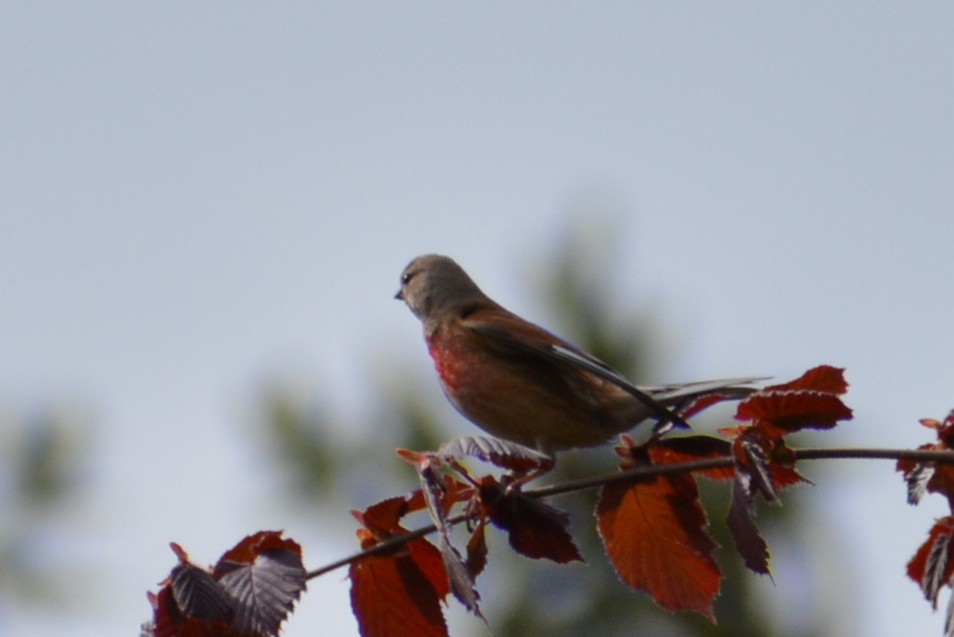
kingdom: Animalia
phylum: Chordata
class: Aves
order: Passeriformes
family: Fringillidae
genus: Linaria
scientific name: Linaria cannabina
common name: Common linnet
